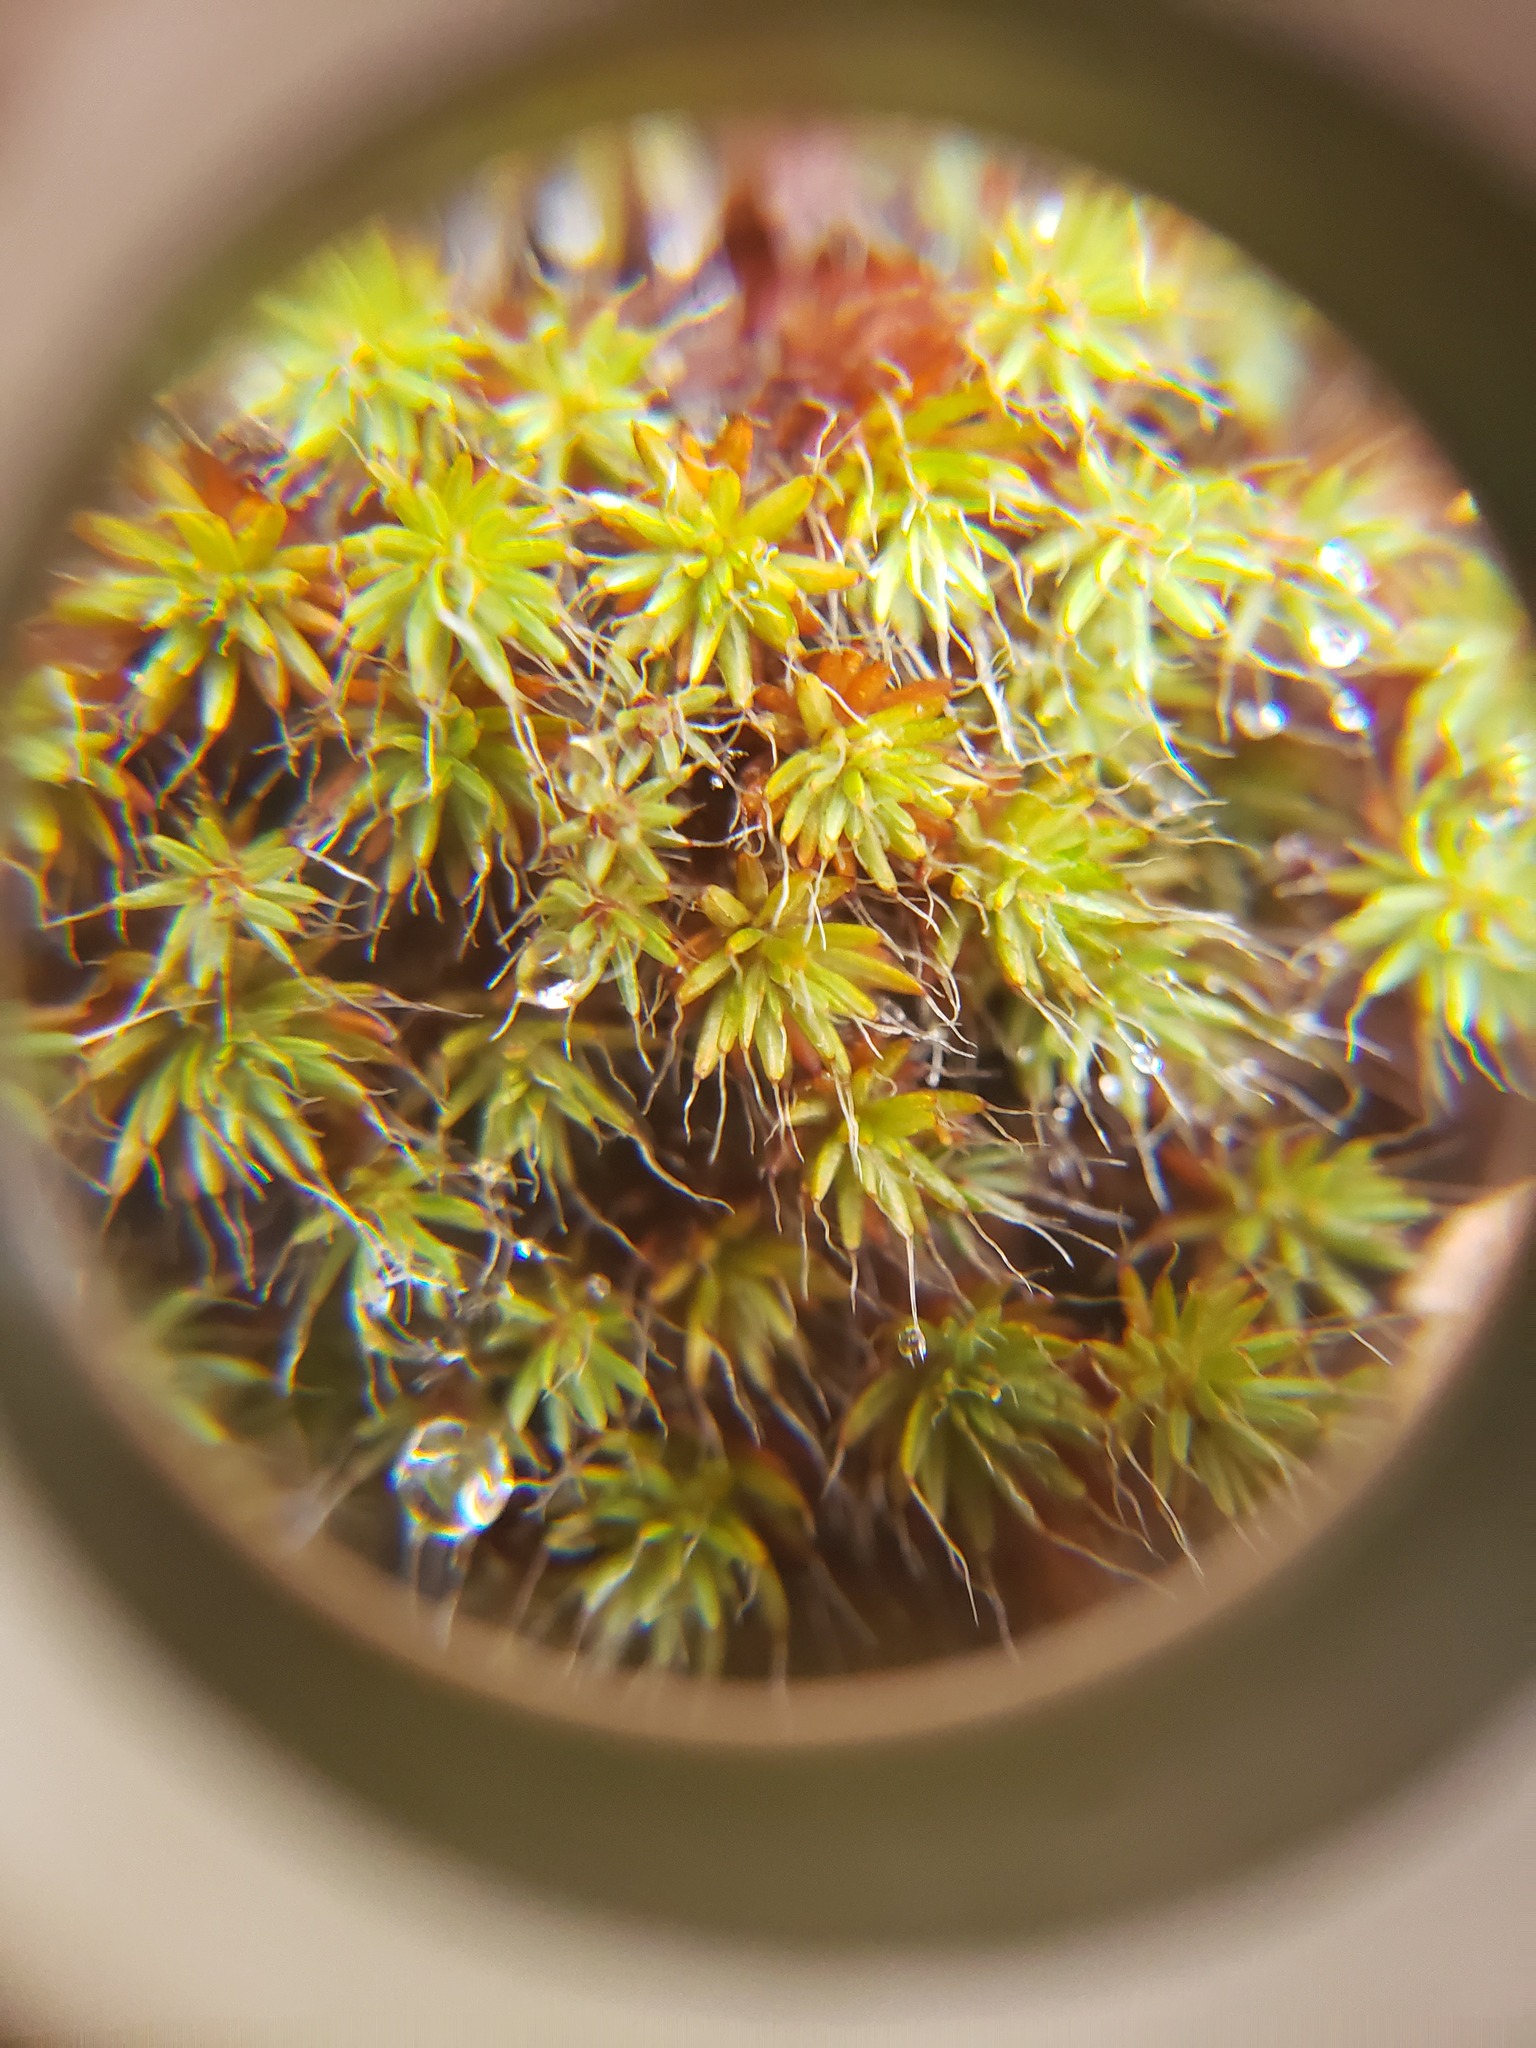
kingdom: Plantae
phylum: Bryophyta
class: Polytrichopsida
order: Polytrichales
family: Polytrichaceae
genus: Polytrichum
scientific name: Polytrichum piliferum
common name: Bristly haircap
